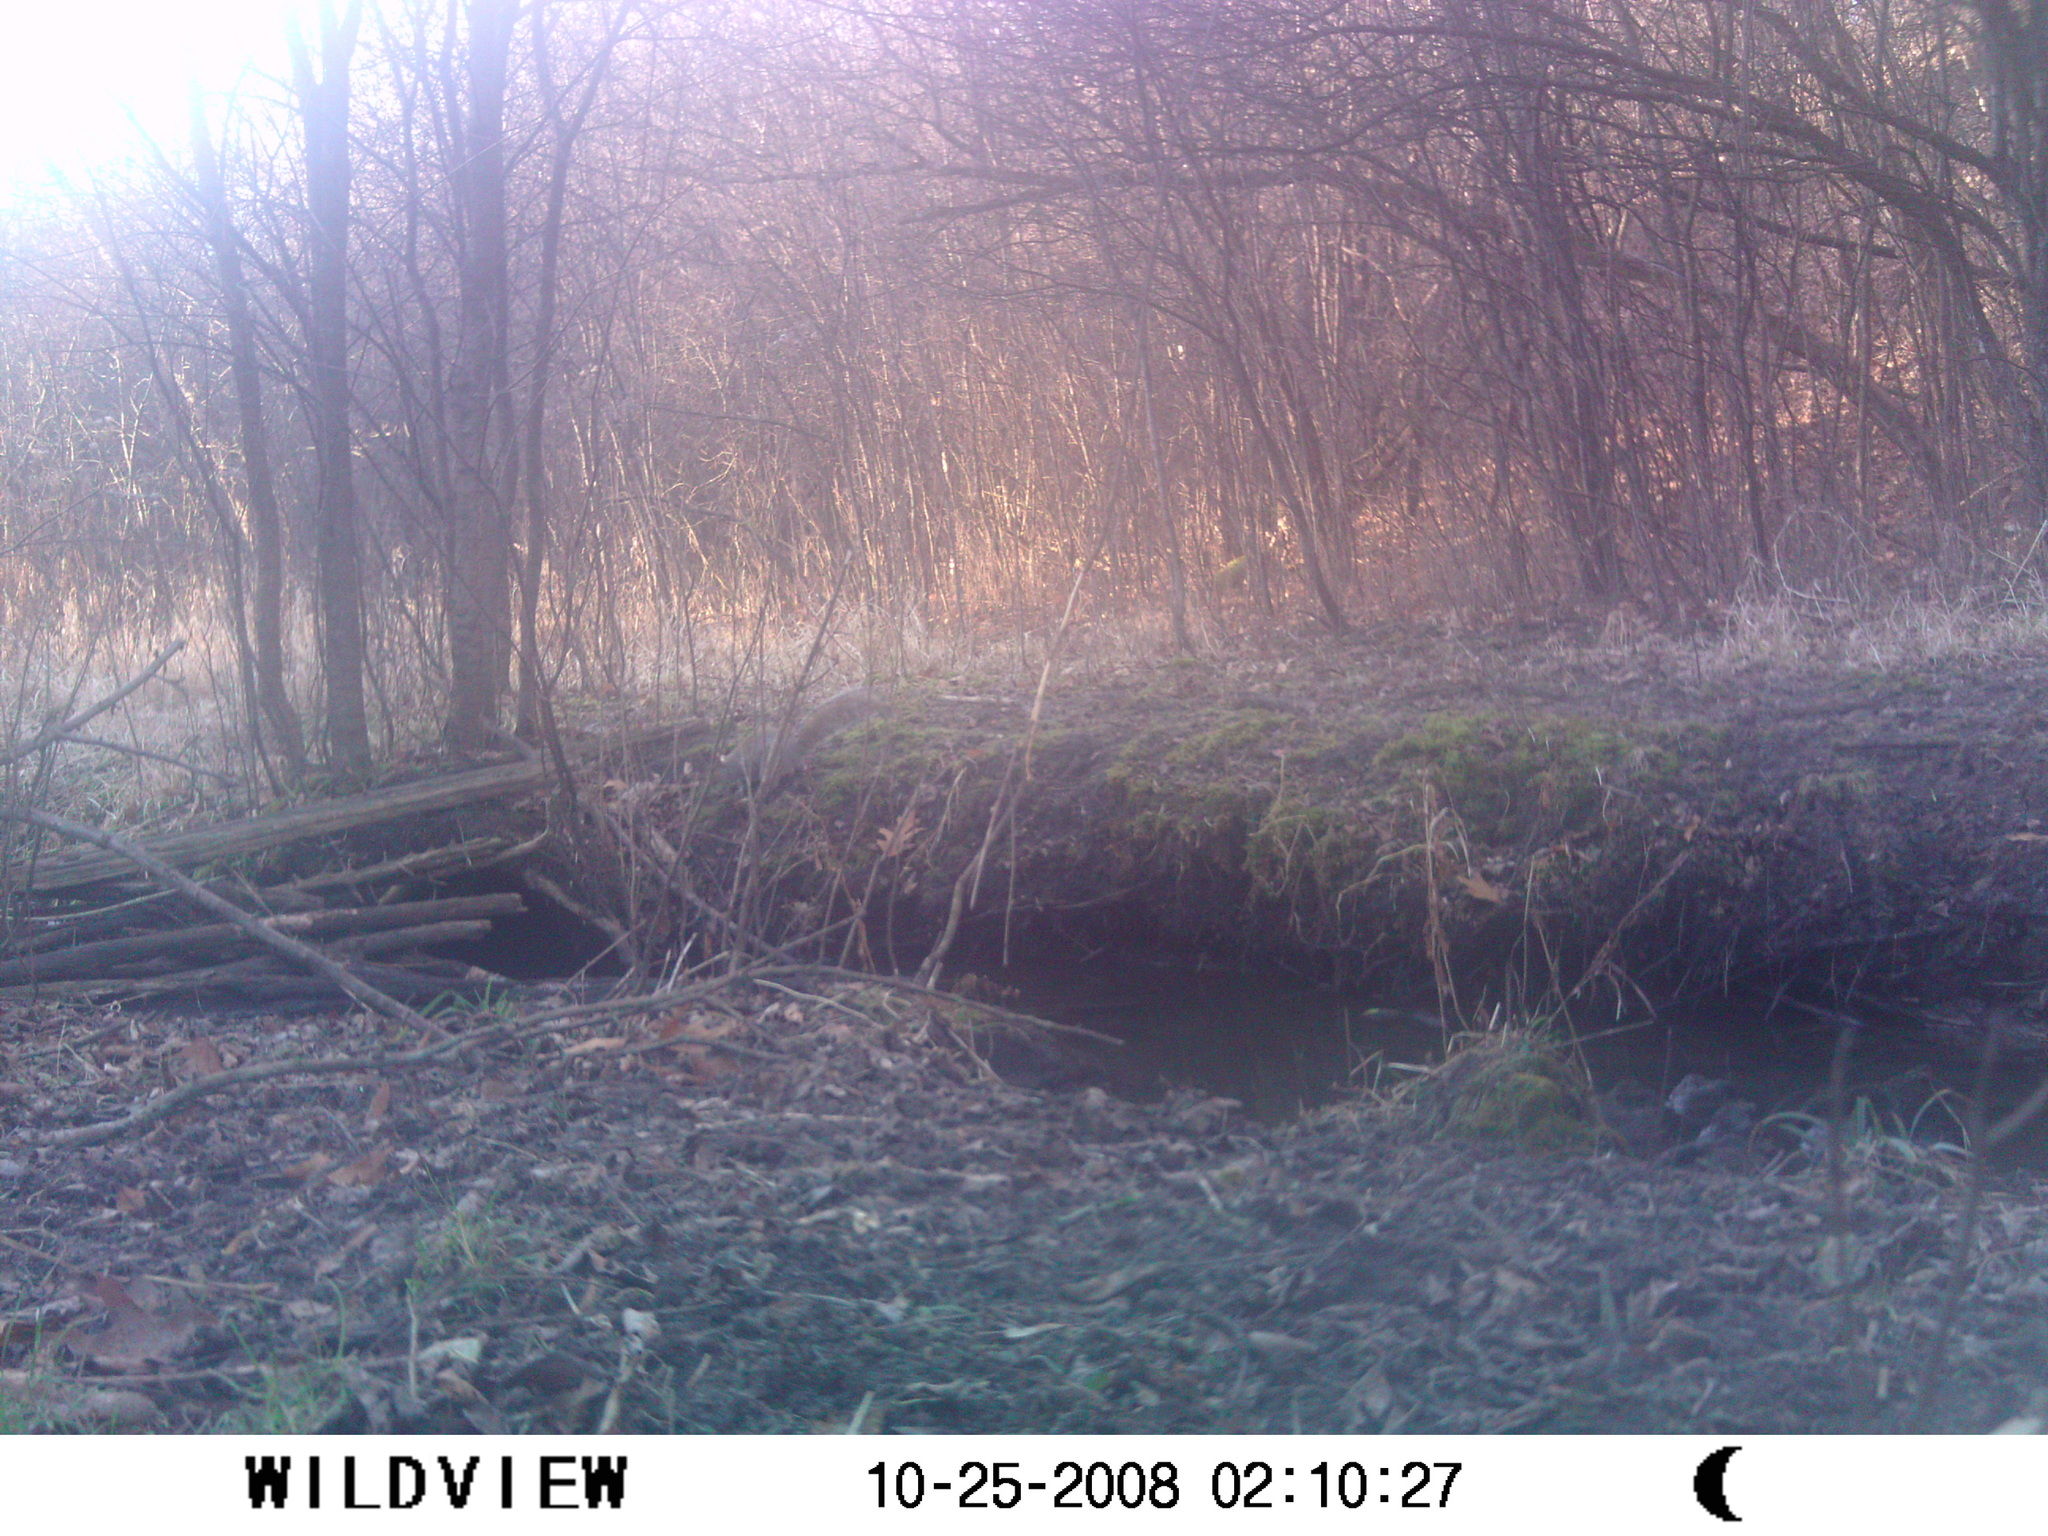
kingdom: Animalia
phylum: Chordata
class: Mammalia
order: Rodentia
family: Sciuridae
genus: Sciurus
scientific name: Sciurus carolinensis
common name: Eastern gray squirrel
